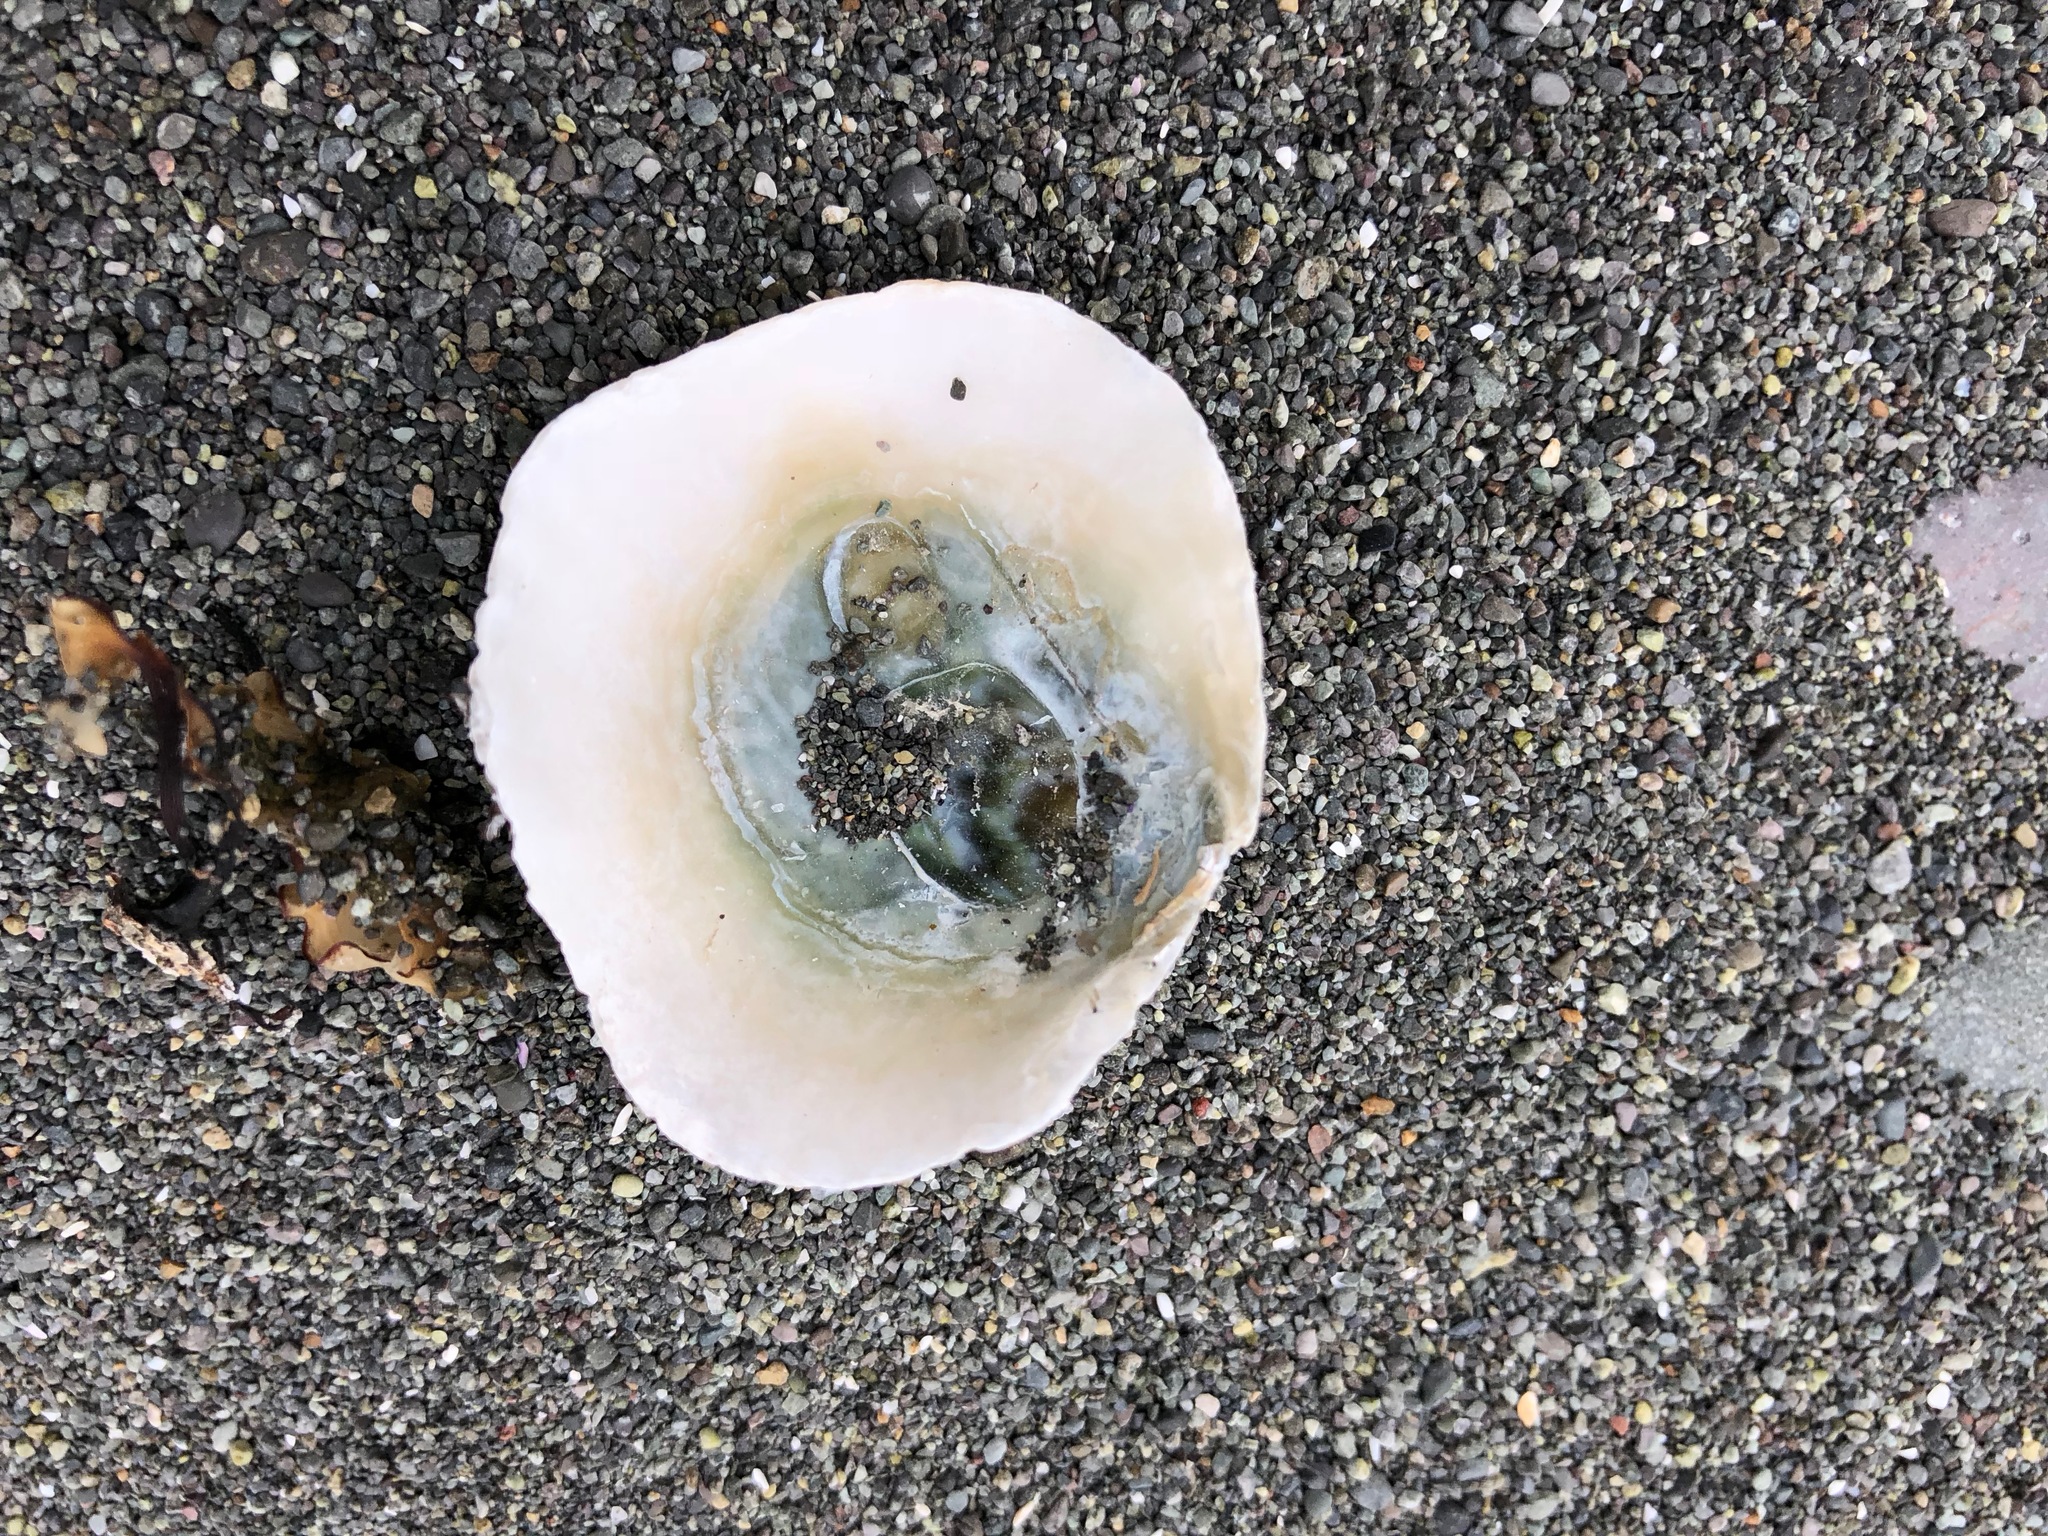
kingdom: Animalia
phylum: Mollusca
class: Bivalvia
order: Pectinida
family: Anomiidae
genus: Pododesmus
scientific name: Pododesmus macrochisma
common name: Alaska jingle
